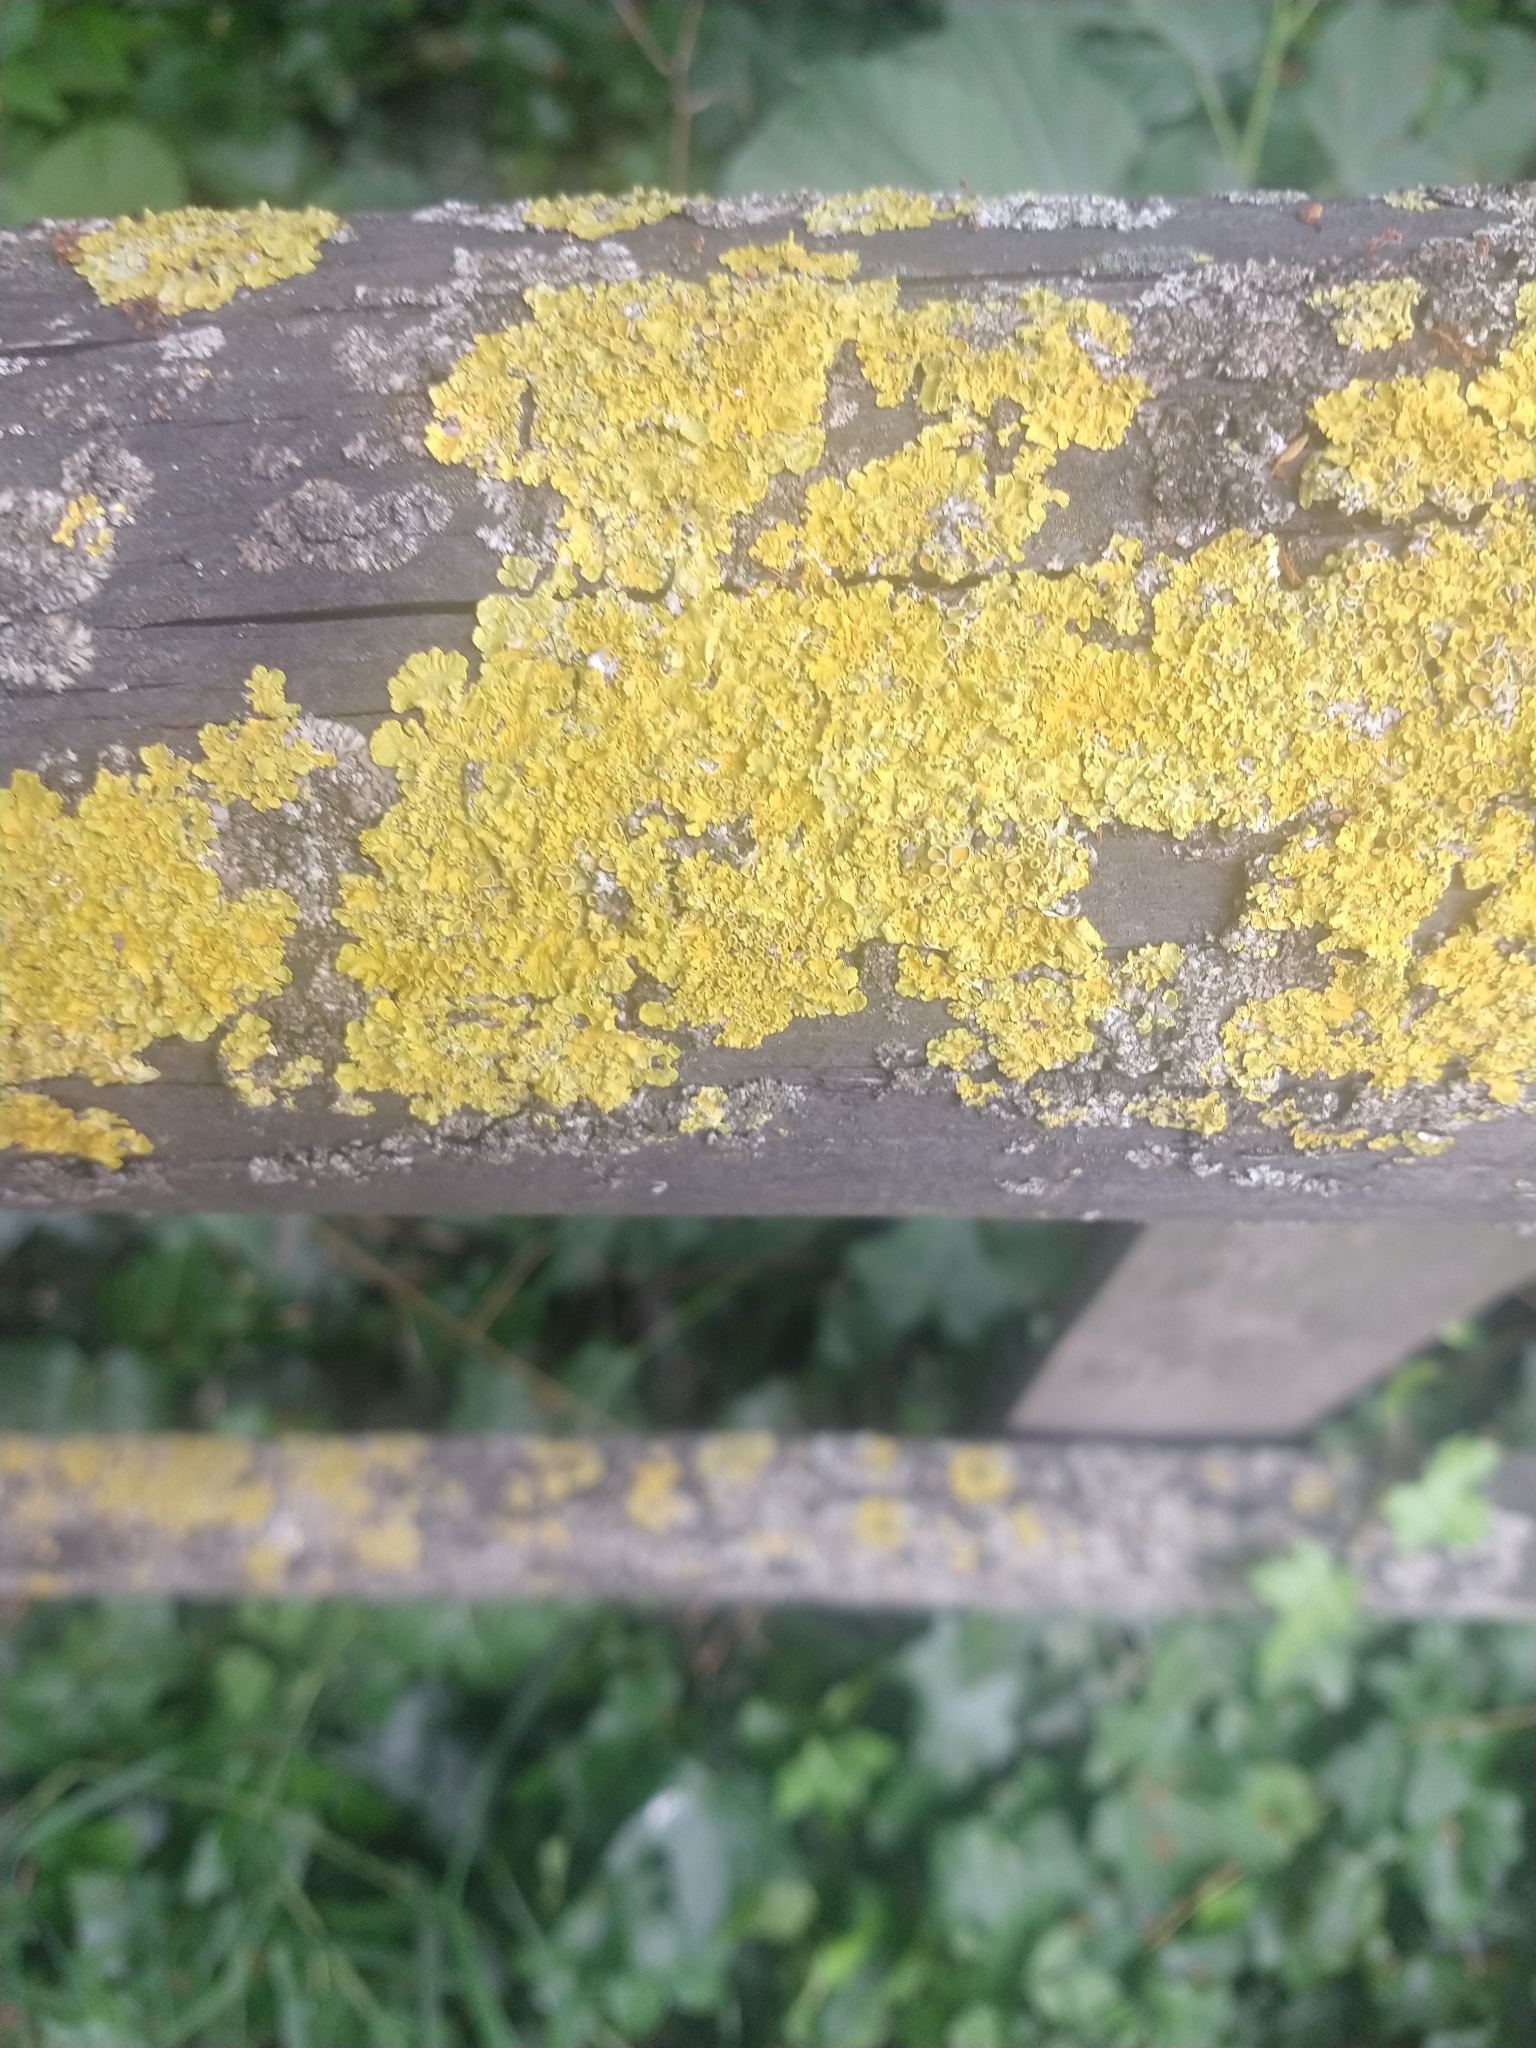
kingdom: Fungi
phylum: Ascomycota
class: Lecanoromycetes
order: Teloschistales
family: Teloschistaceae
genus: Xanthoria
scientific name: Xanthoria parietina
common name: Common orange lichen
